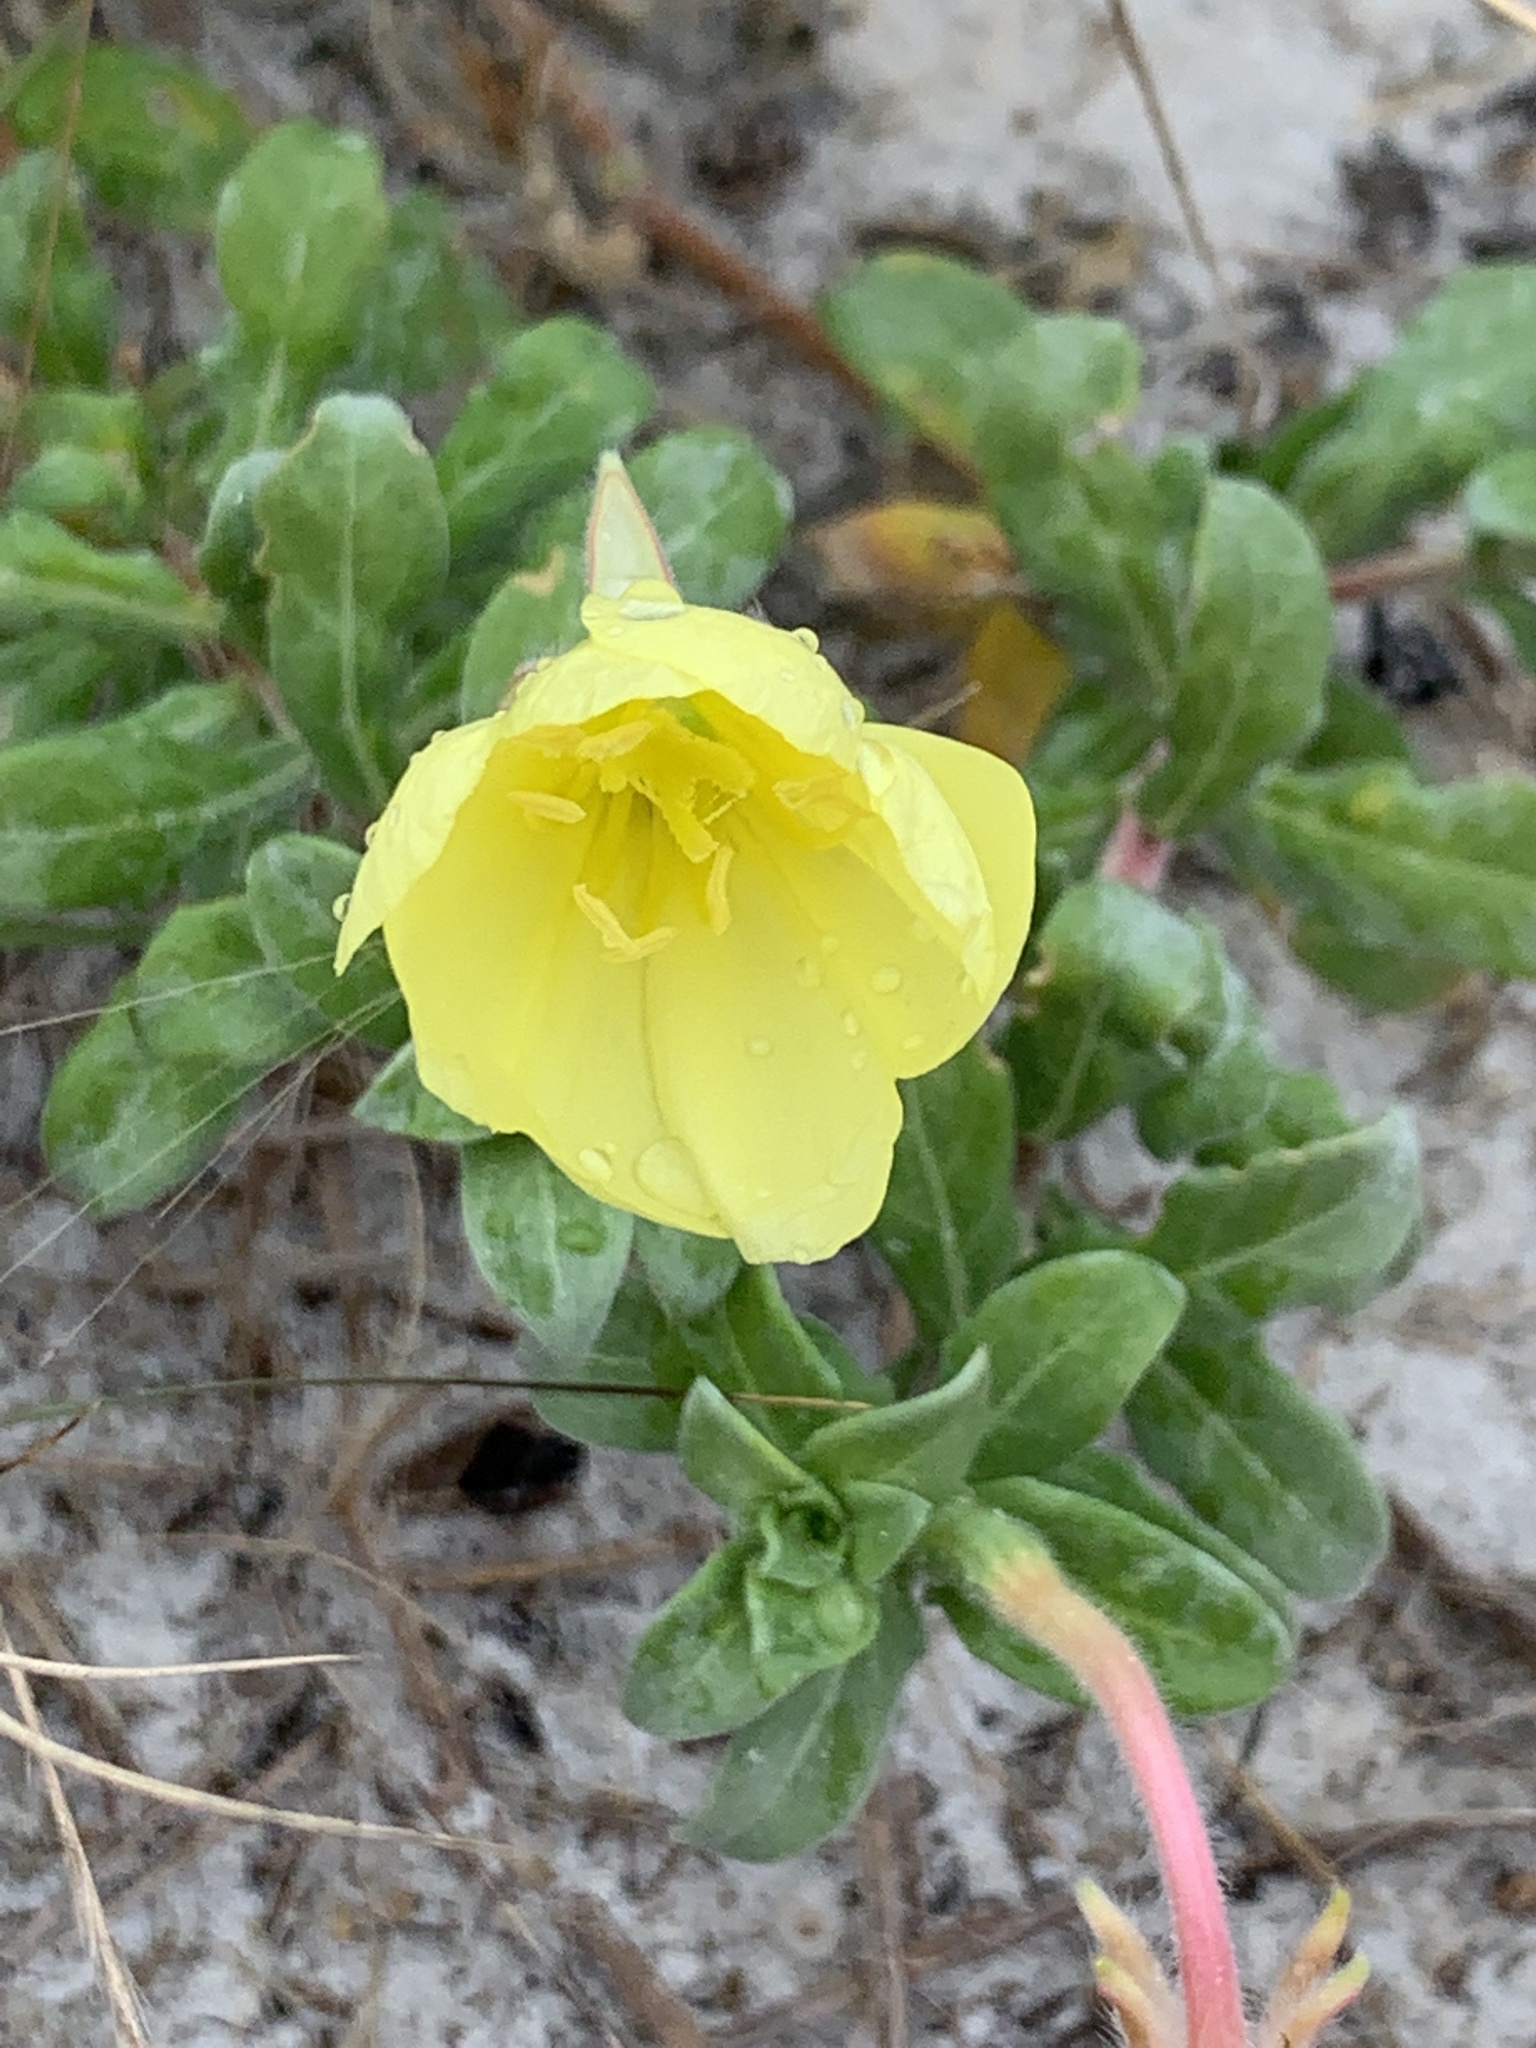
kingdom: Plantae
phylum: Tracheophyta
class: Magnoliopsida
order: Myrtales
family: Onagraceae
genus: Oenothera
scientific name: Oenothera humifusa
